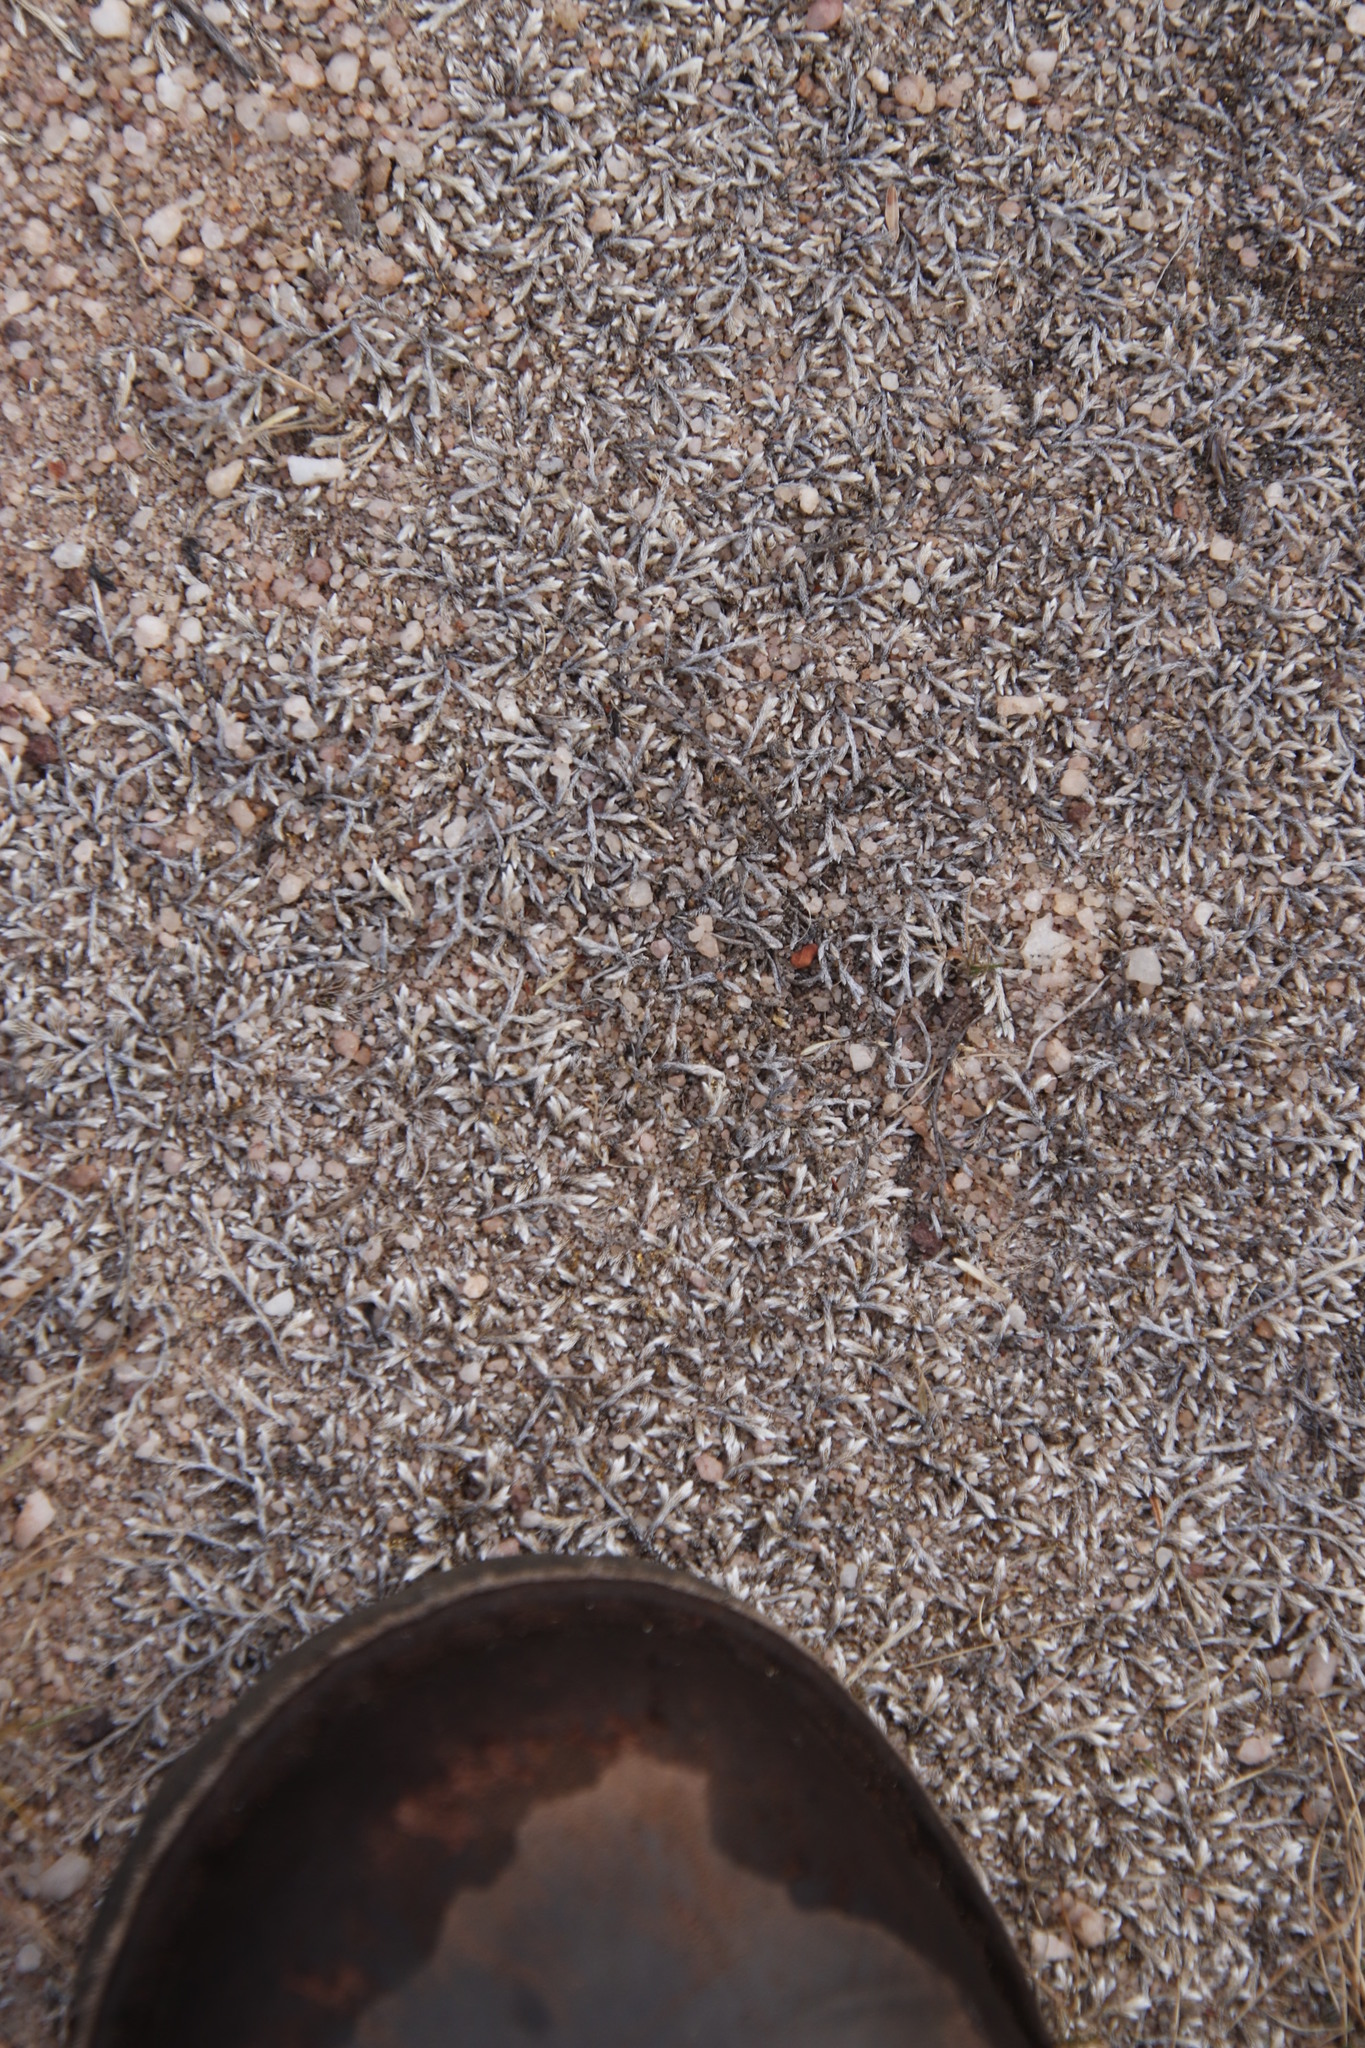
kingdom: Plantae
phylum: Tracheophyta
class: Lycopodiopsida
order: Selaginellales
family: Selaginellaceae
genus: Selaginella
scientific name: Selaginella dregei
